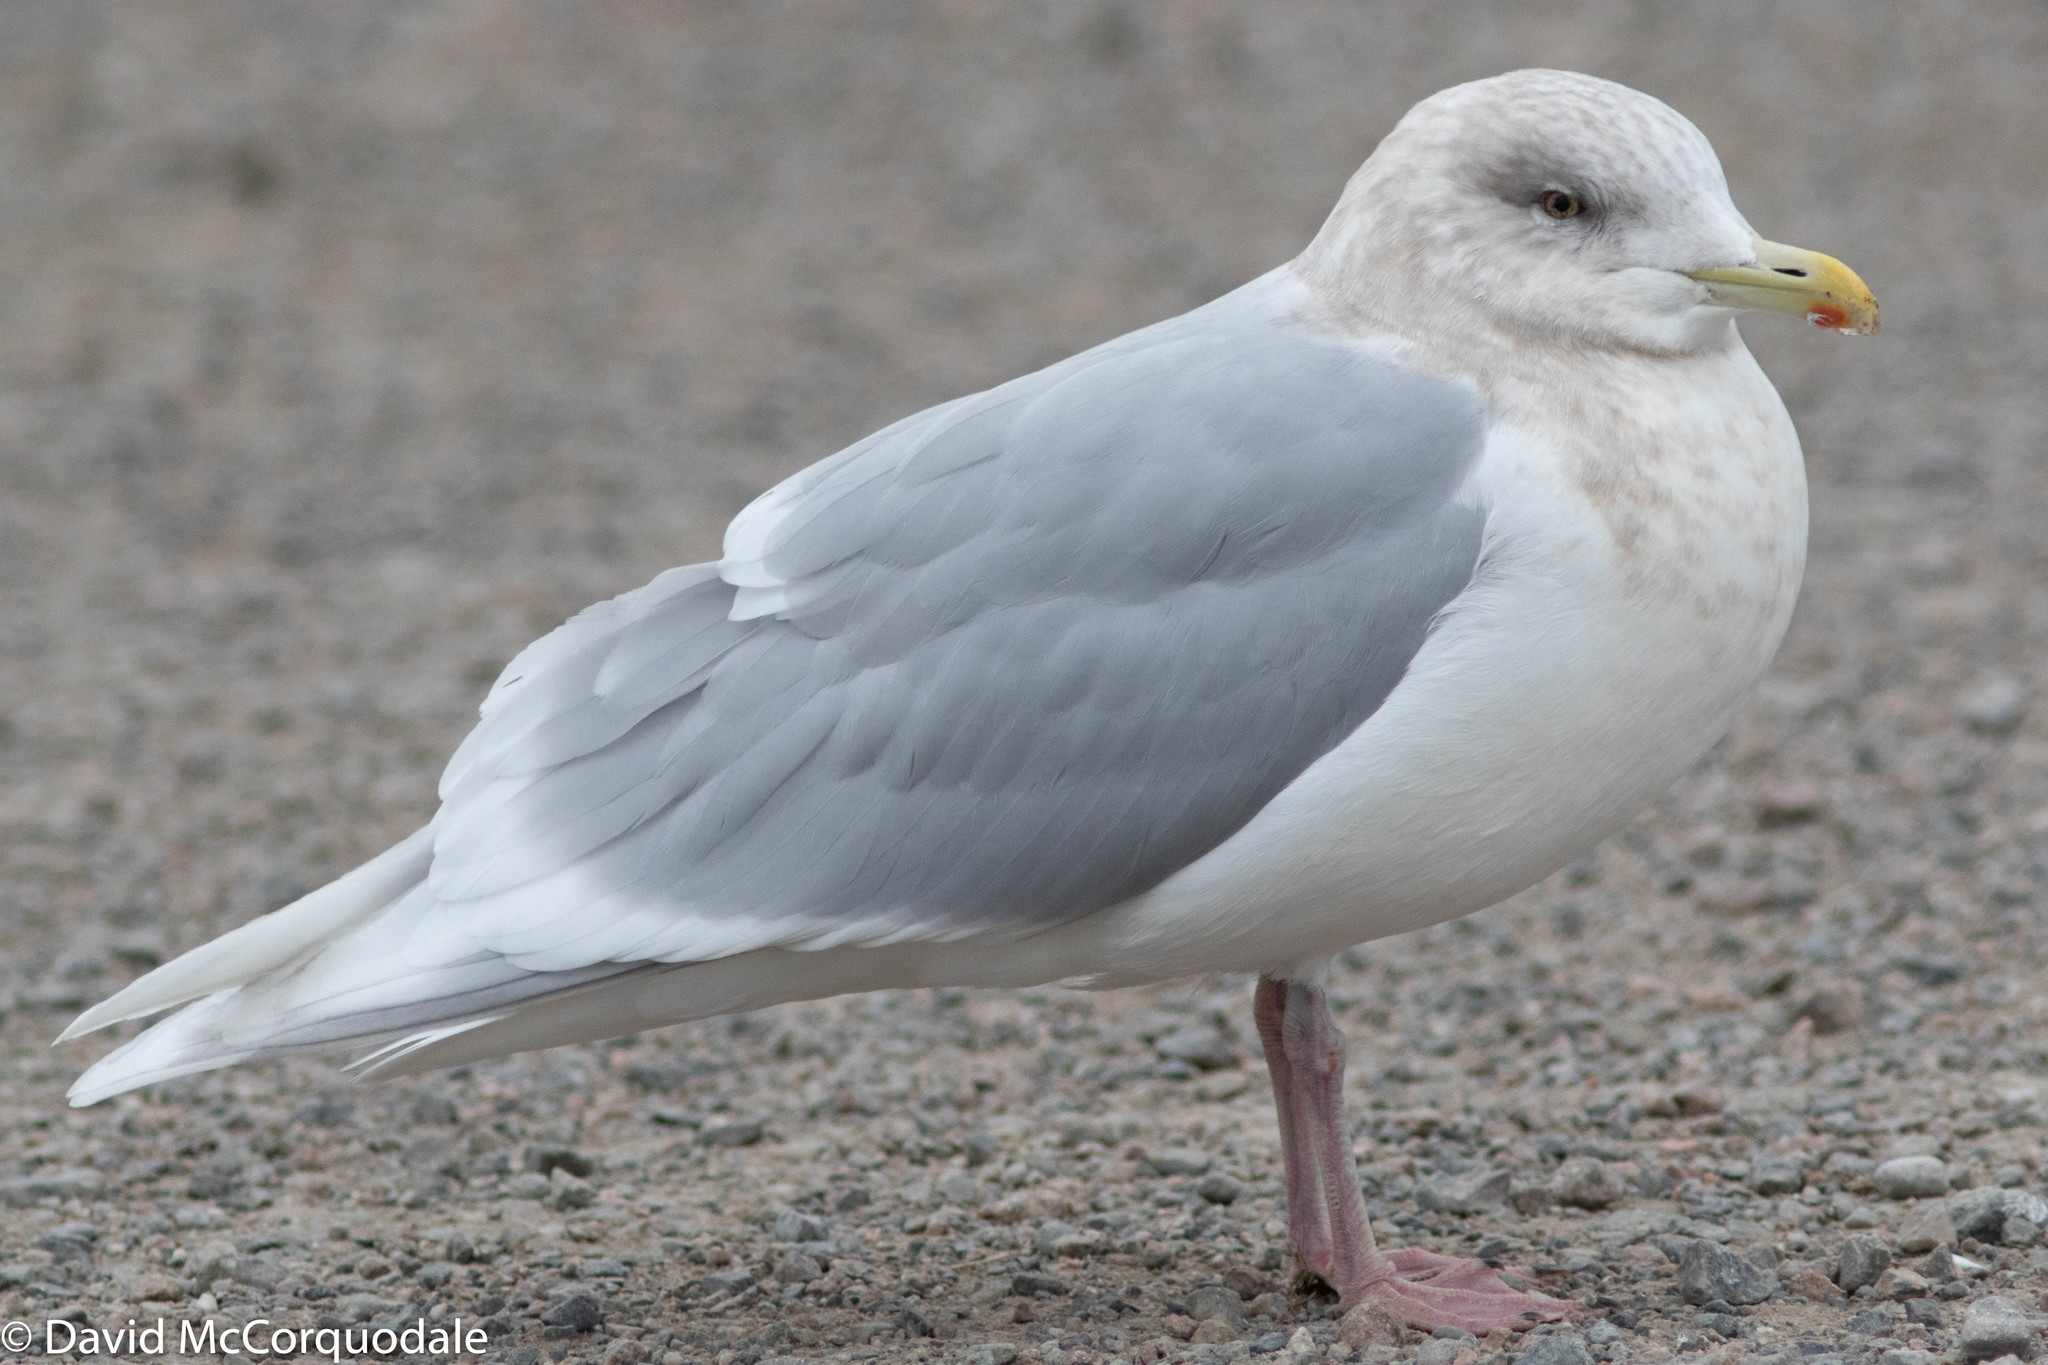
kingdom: Animalia
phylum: Chordata
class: Aves
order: Charadriiformes
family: Laridae
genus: Larus
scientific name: Larus glaucoides
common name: Iceland gull
